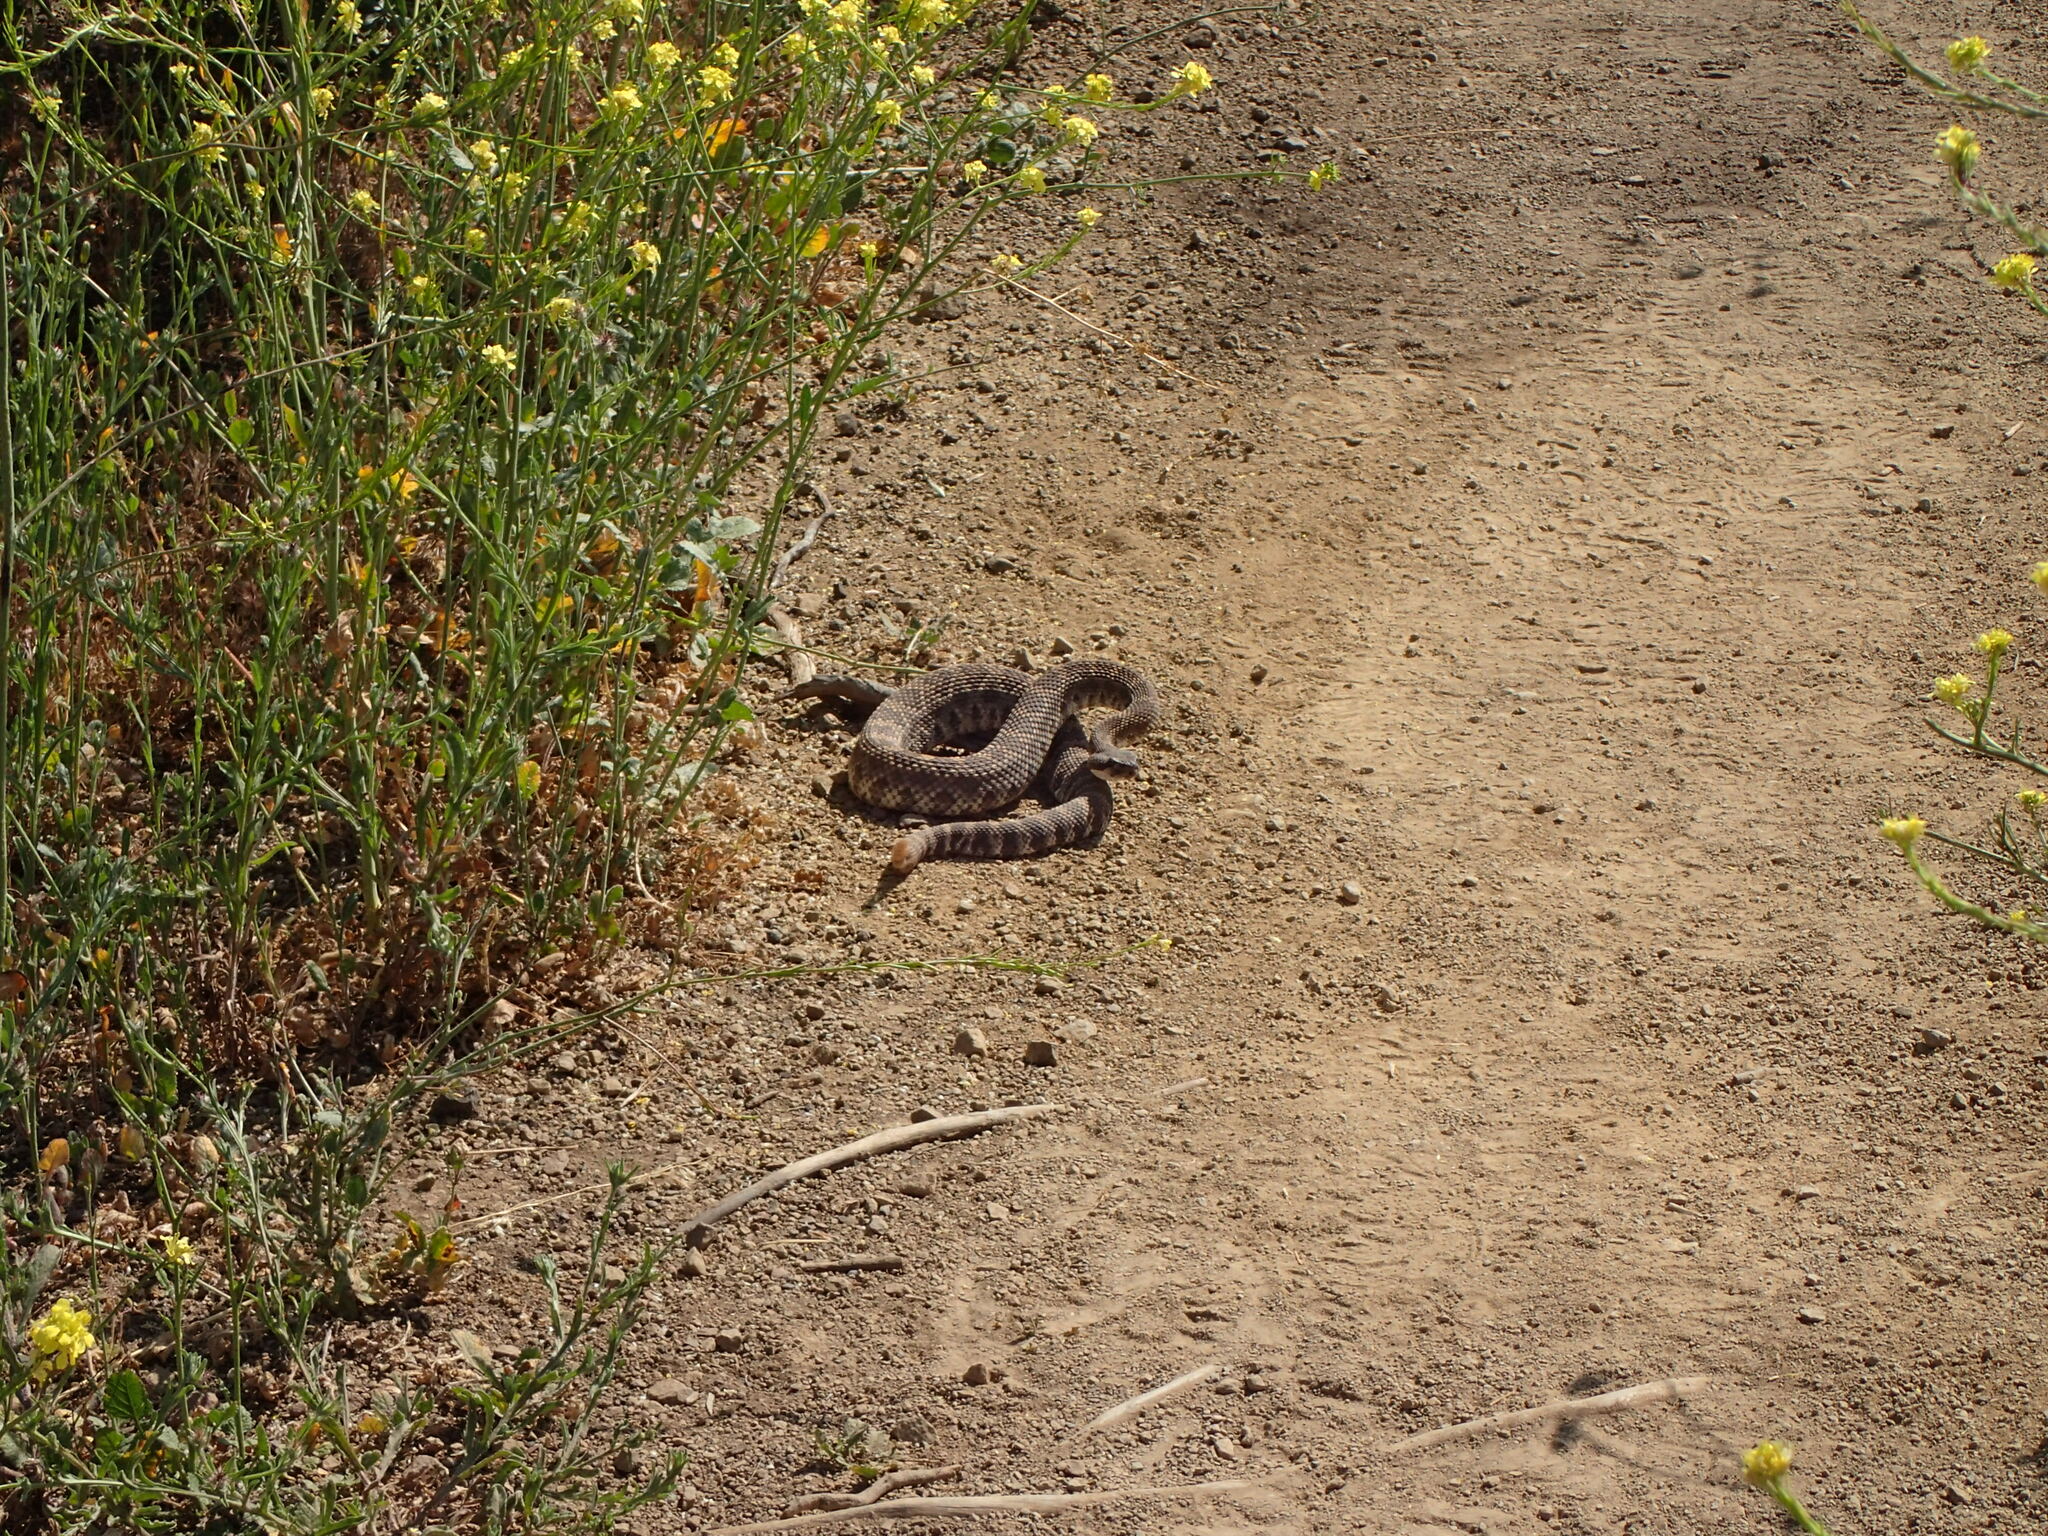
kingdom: Animalia
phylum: Chordata
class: Squamata
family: Viperidae
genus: Crotalus
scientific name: Crotalus oreganus
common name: Abyssus
